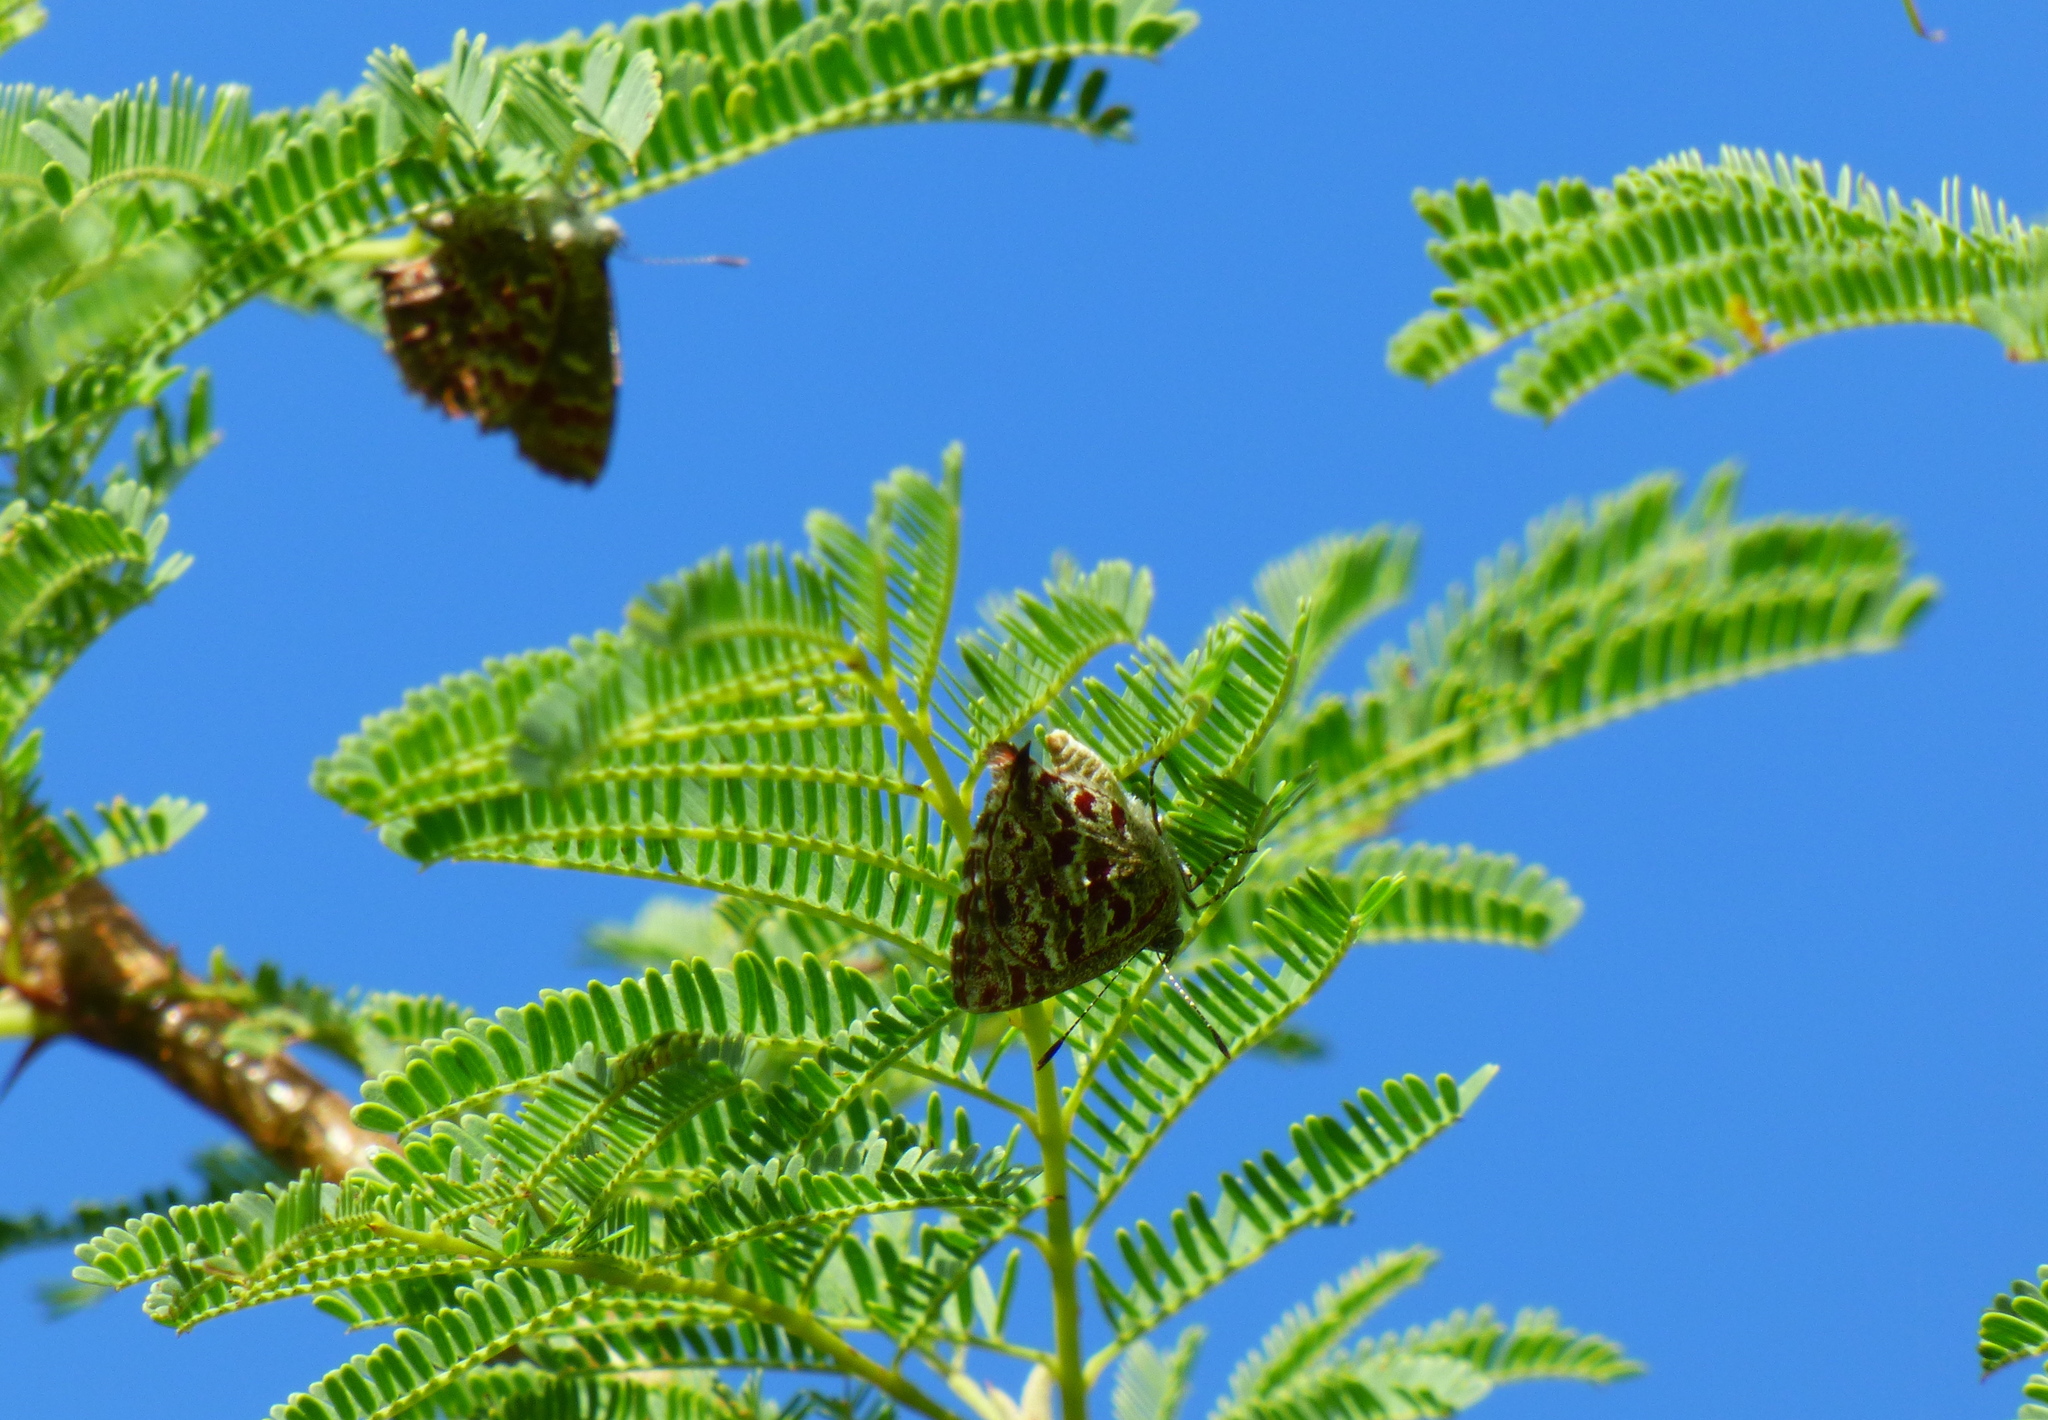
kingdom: Animalia
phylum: Arthropoda
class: Insecta
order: Lepidoptera
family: Lycaenidae
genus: Ministrymon
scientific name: Ministrymon
